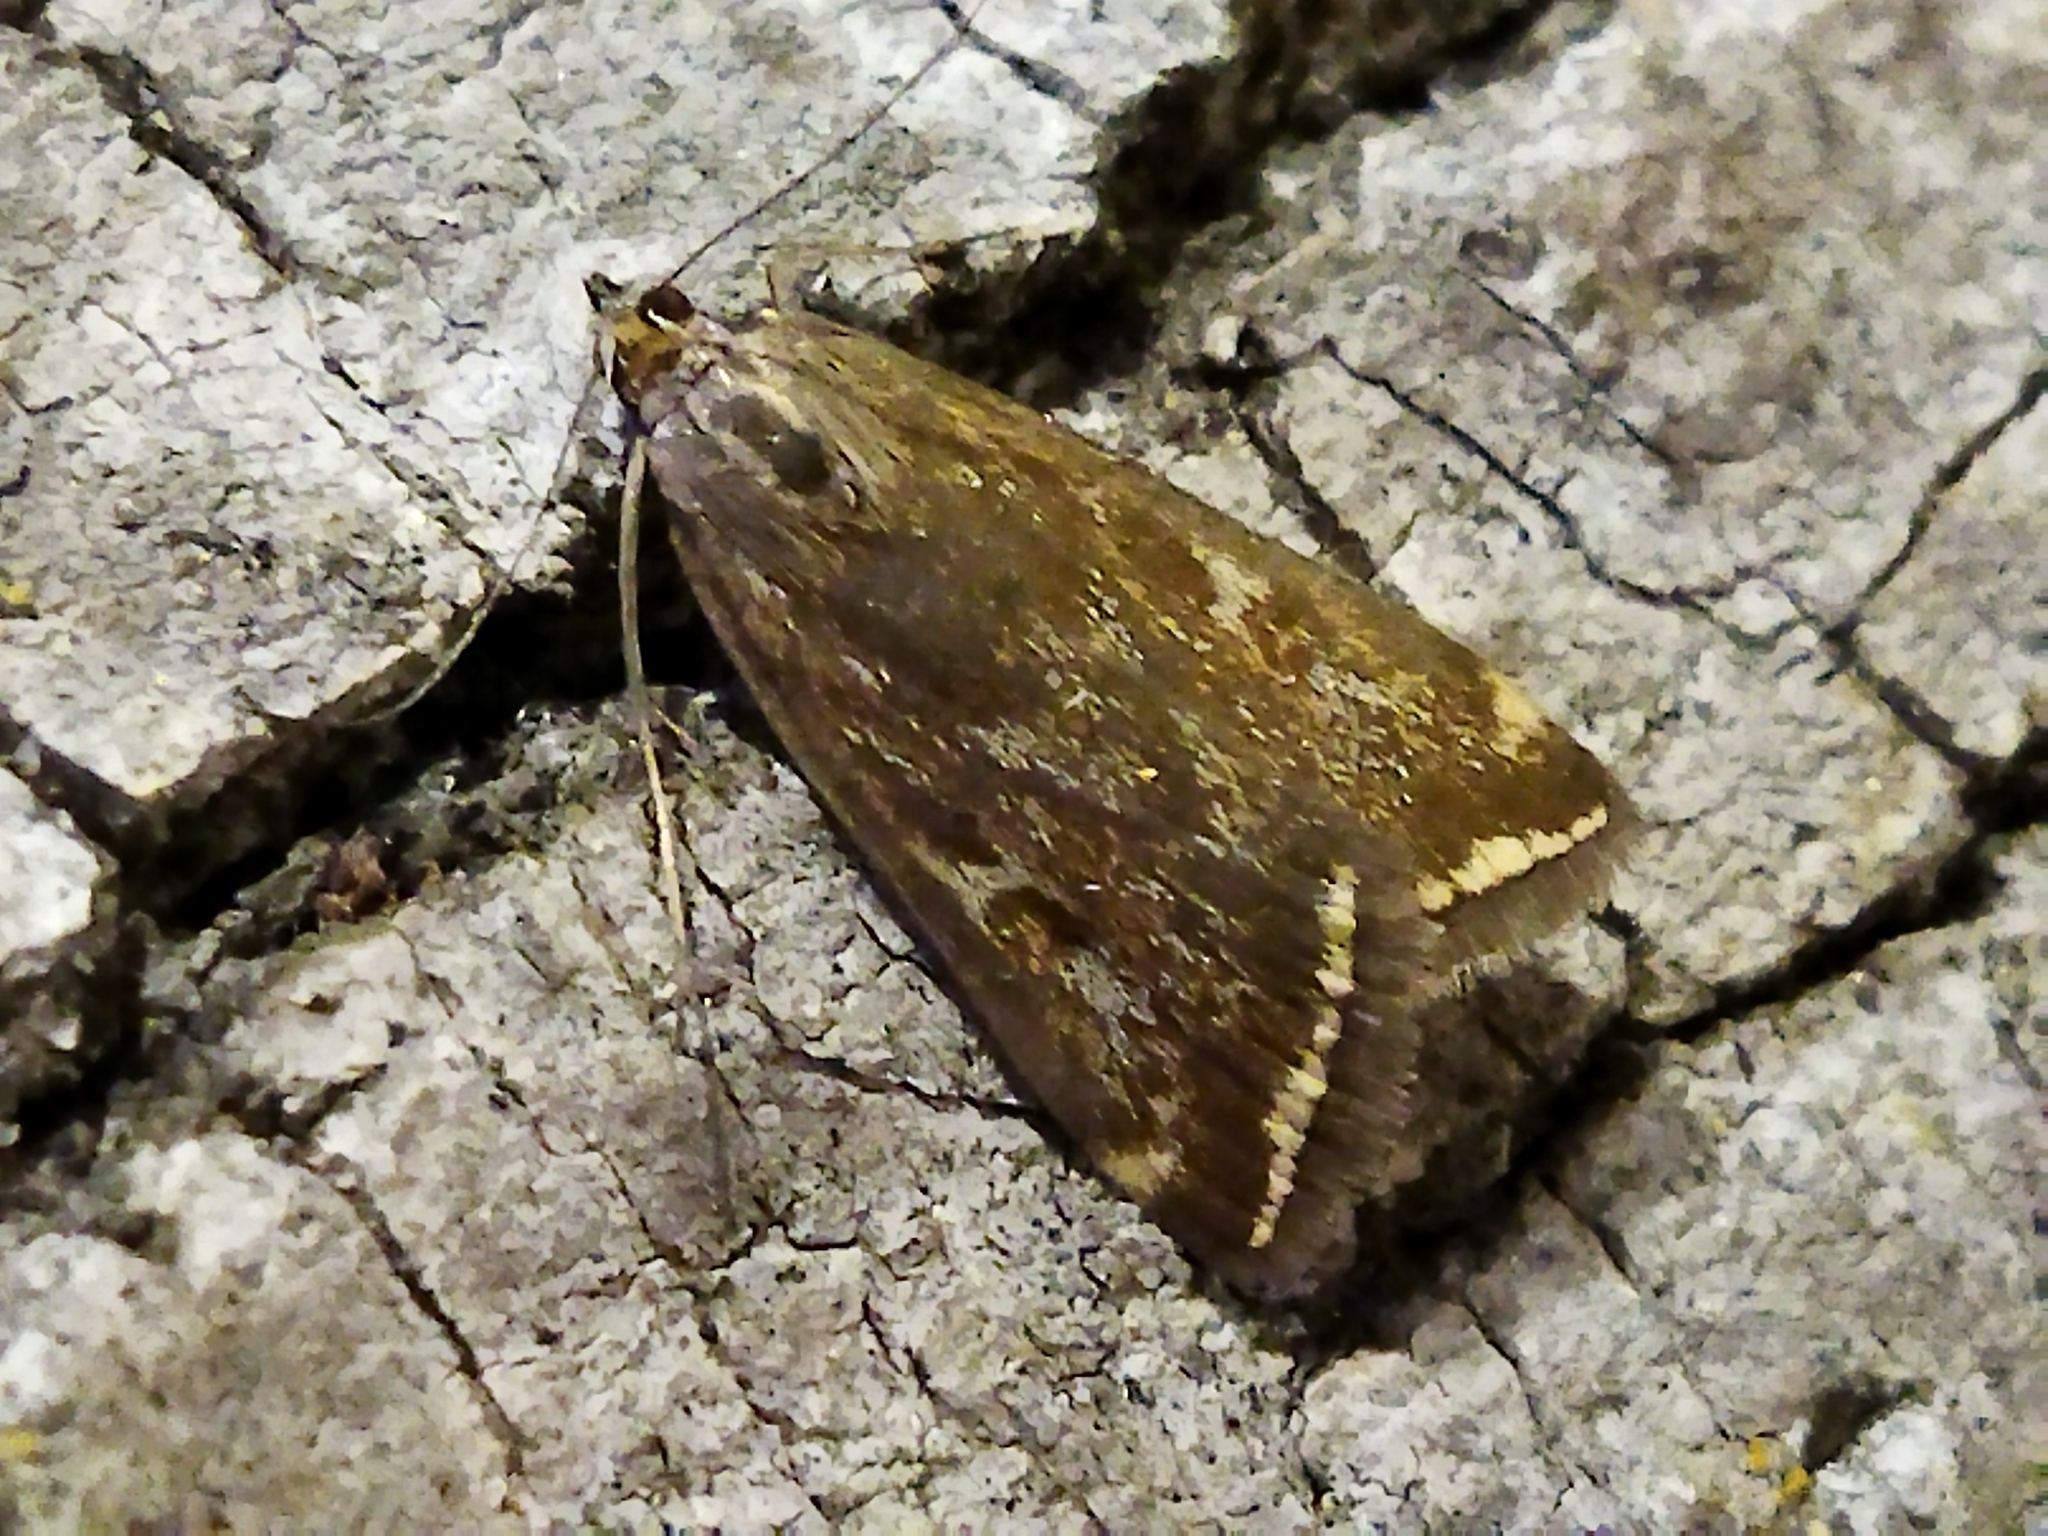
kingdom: Animalia
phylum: Arthropoda
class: Insecta
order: Lepidoptera
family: Crambidae
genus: Loxostege
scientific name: Loxostege sticticalis
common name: Crambid moth
